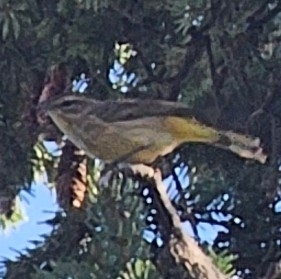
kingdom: Animalia
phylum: Chordata
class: Aves
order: Passeriformes
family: Parulidae
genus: Setophaga
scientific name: Setophaga palmarum
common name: Palm warbler
